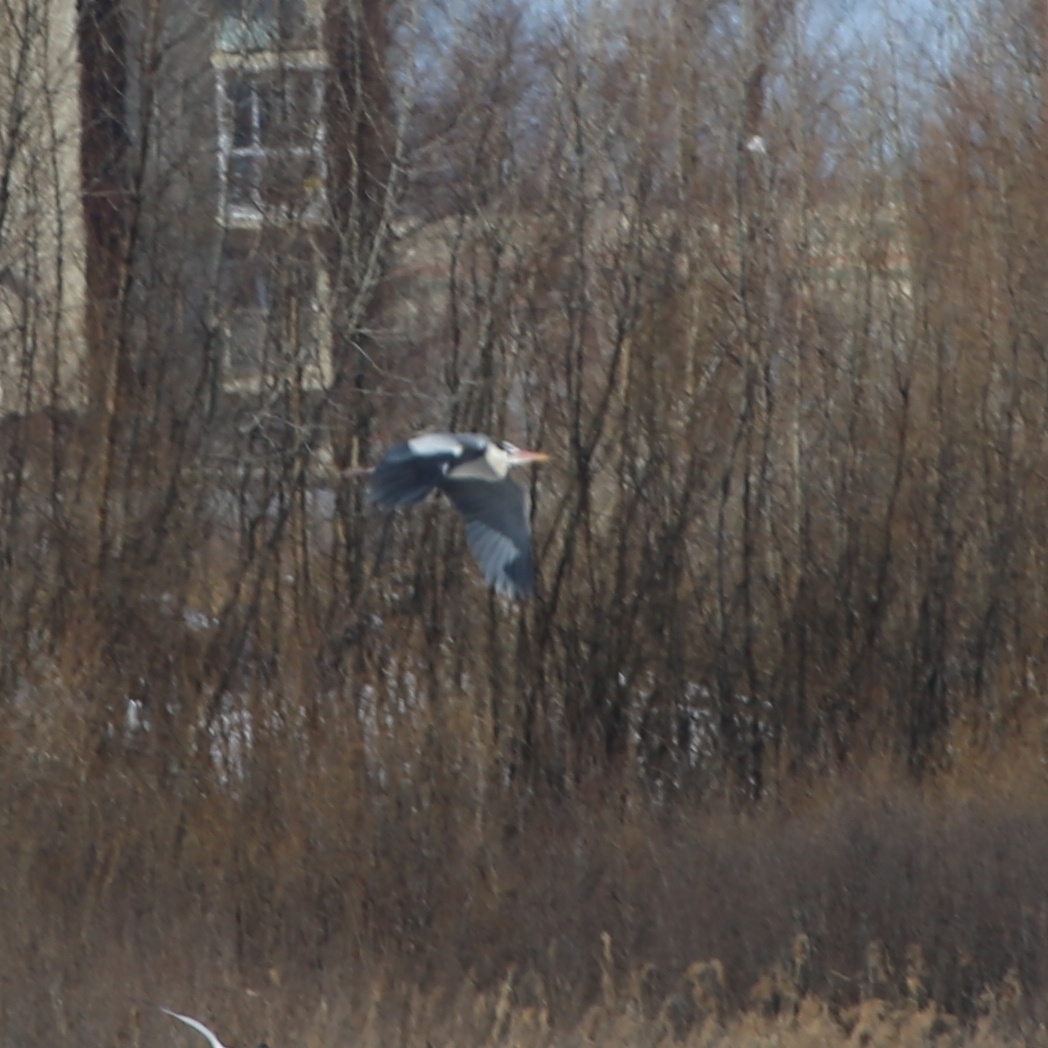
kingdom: Animalia
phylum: Chordata
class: Aves
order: Pelecaniformes
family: Ardeidae
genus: Ardea
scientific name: Ardea cinerea
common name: Grey heron
